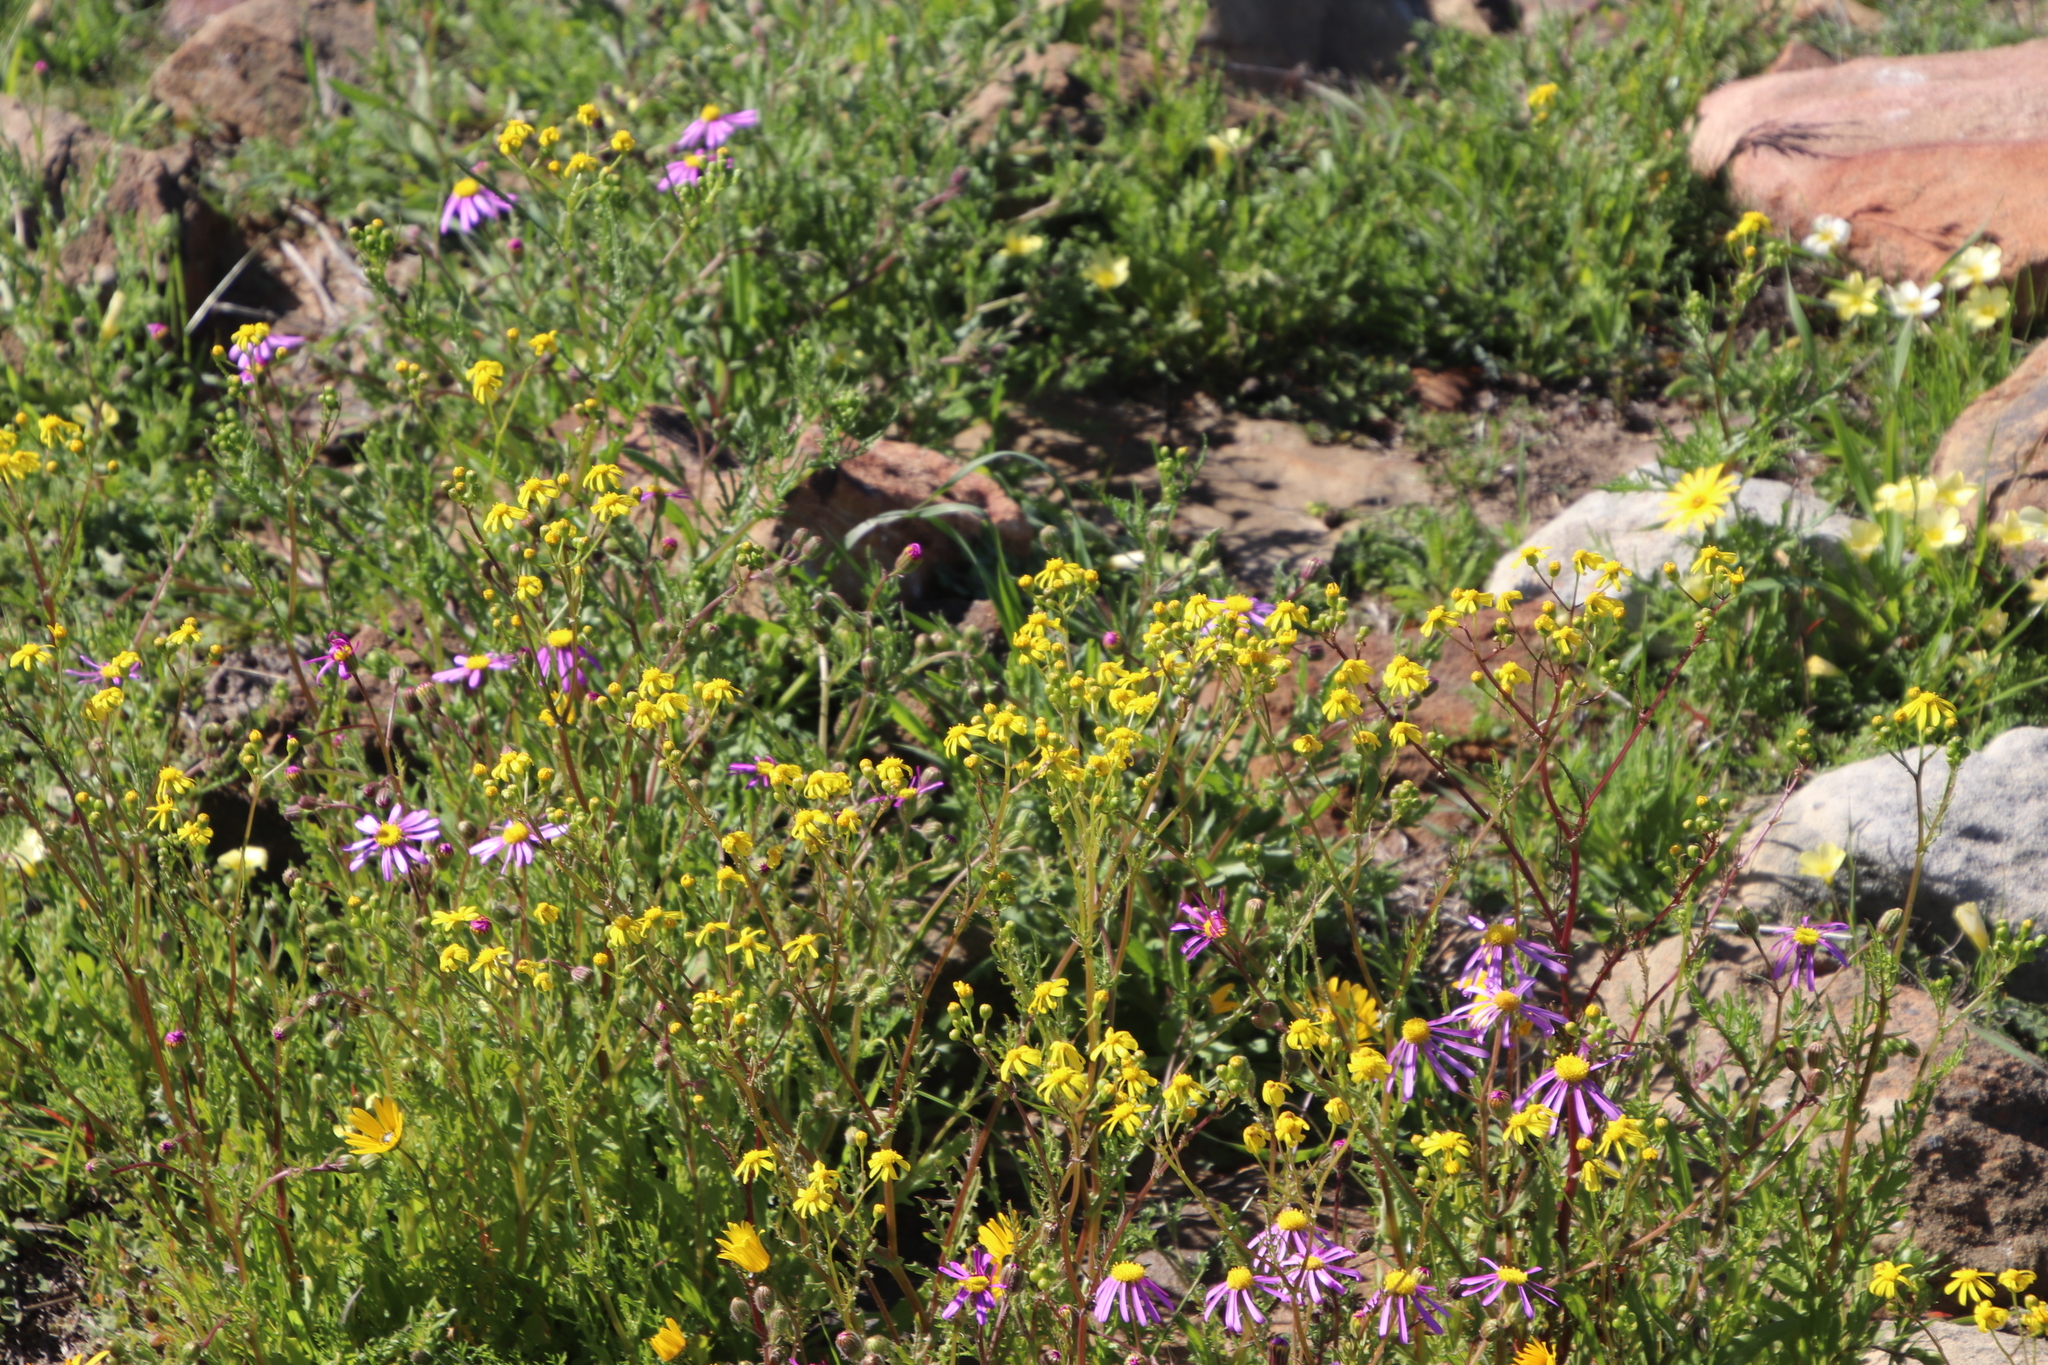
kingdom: Plantae
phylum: Tracheophyta
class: Magnoliopsida
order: Asterales
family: Asteraceae
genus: Senecio
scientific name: Senecio abruptus
